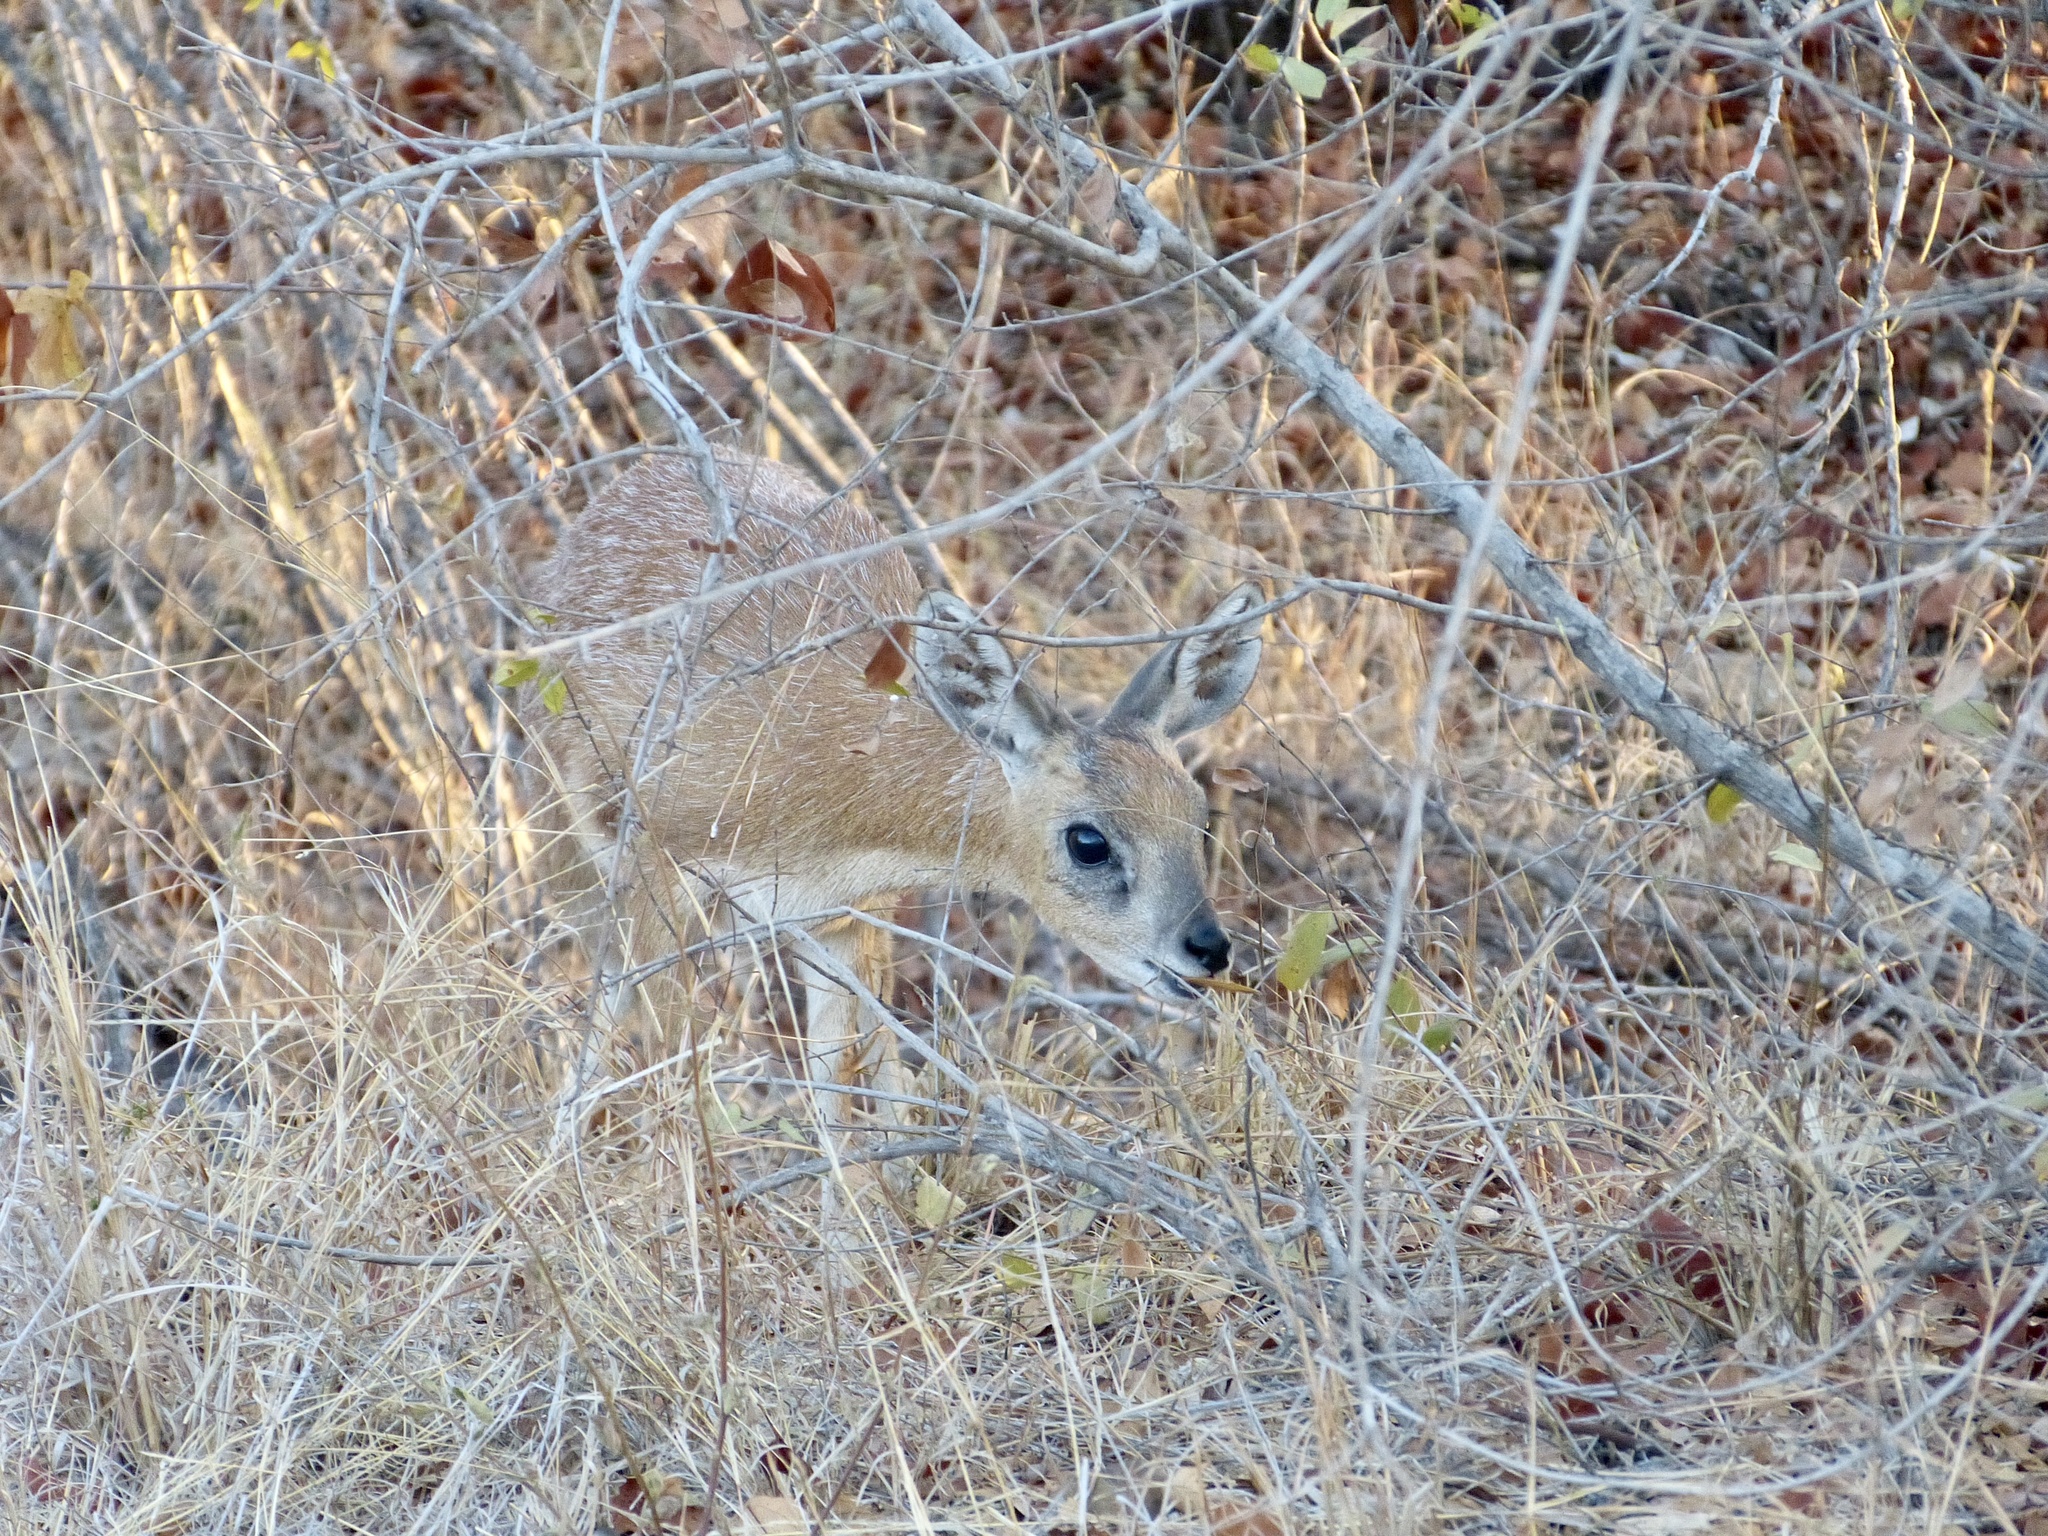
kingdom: Animalia
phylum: Chordata
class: Mammalia
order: Artiodactyla
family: Bovidae
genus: Raphicerus
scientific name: Raphicerus sharpei
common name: Sharpe's grysbok
